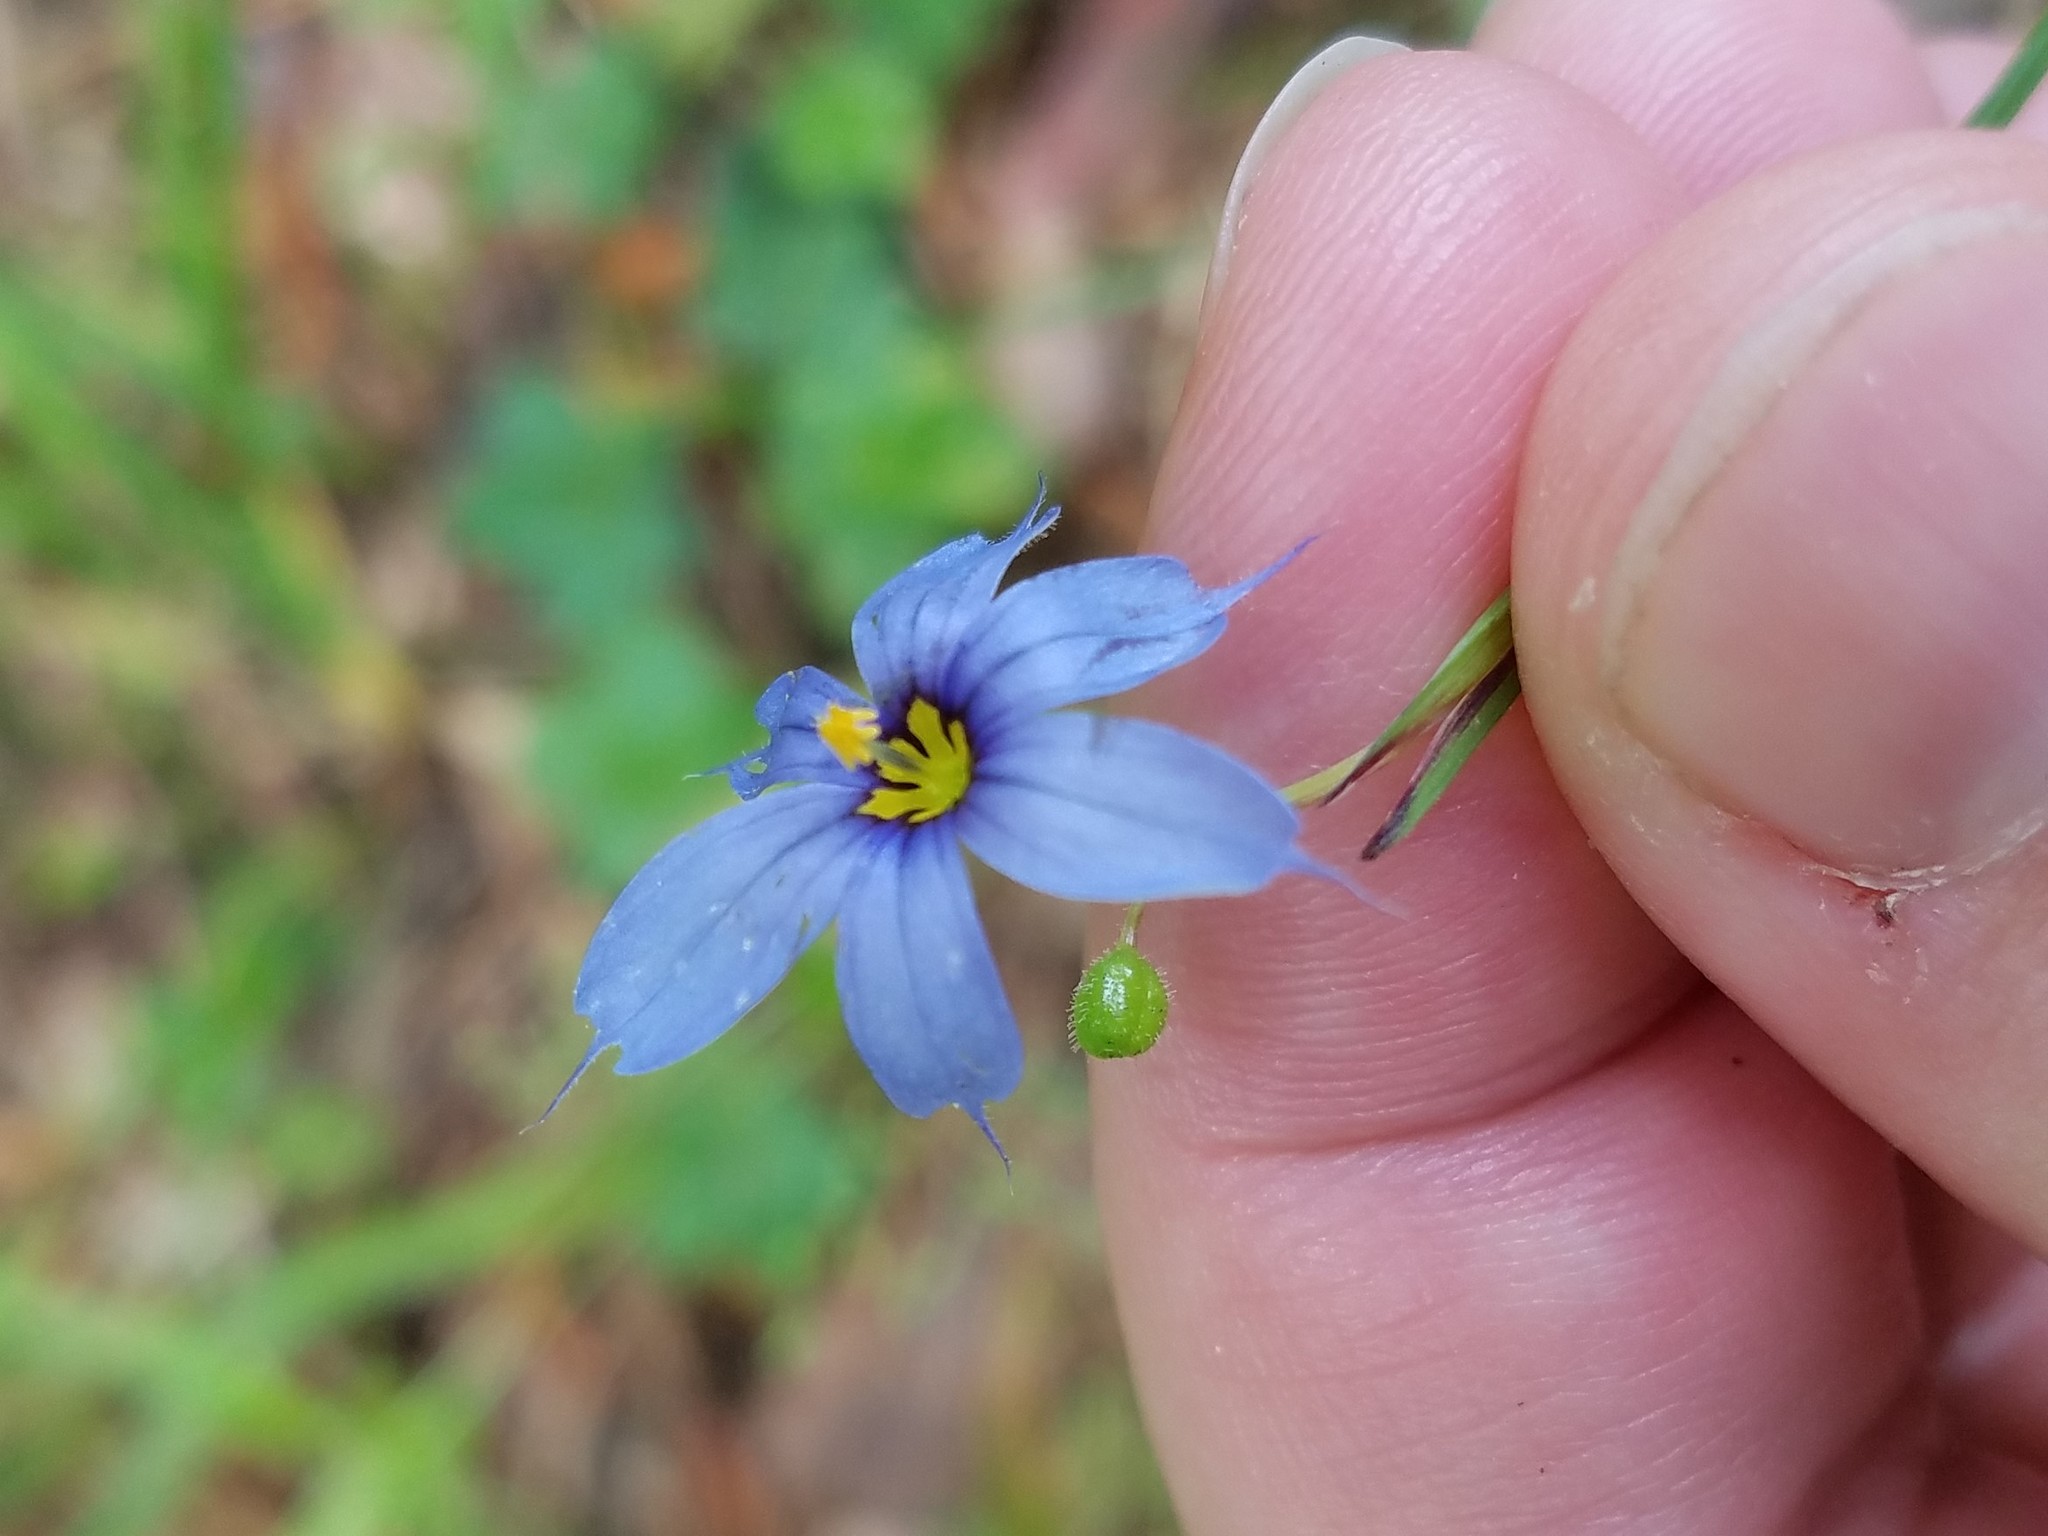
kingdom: Plantae
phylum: Tracheophyta
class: Liliopsida
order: Asparagales
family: Iridaceae
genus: Sisyrinchium
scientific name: Sisyrinchium angustifolium
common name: Narrow-leaf blue-eyed-grass
